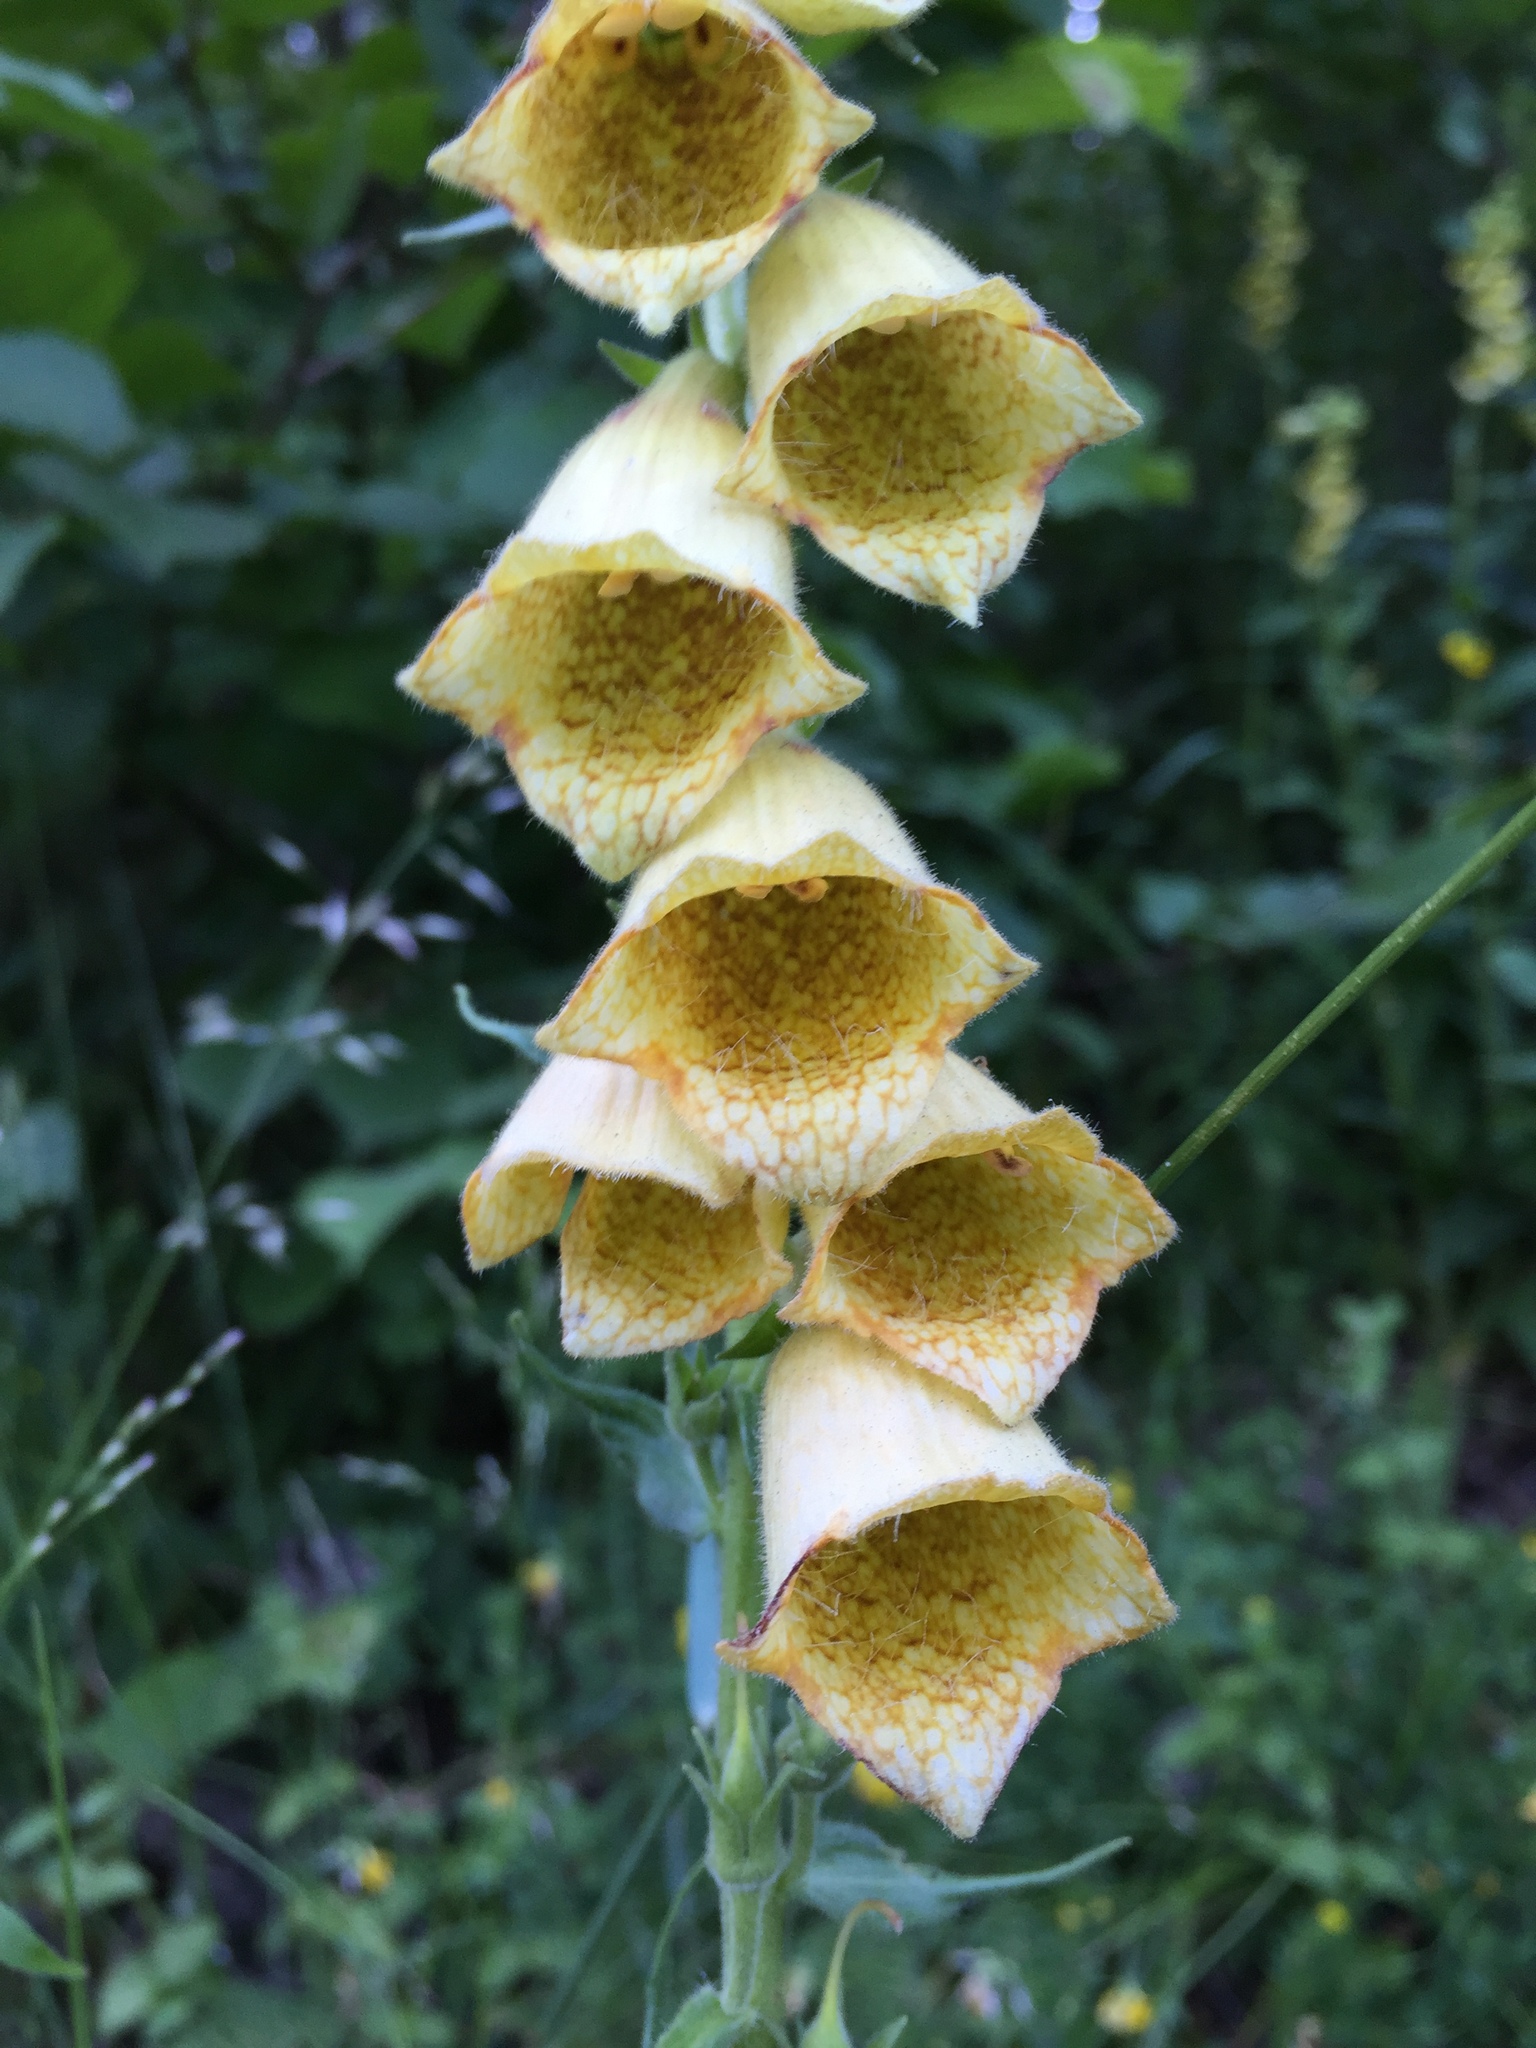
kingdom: Plantae
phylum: Tracheophyta
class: Magnoliopsida
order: Lamiales
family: Plantaginaceae
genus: Digitalis
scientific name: Digitalis grandiflora
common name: Yellow foxglove
